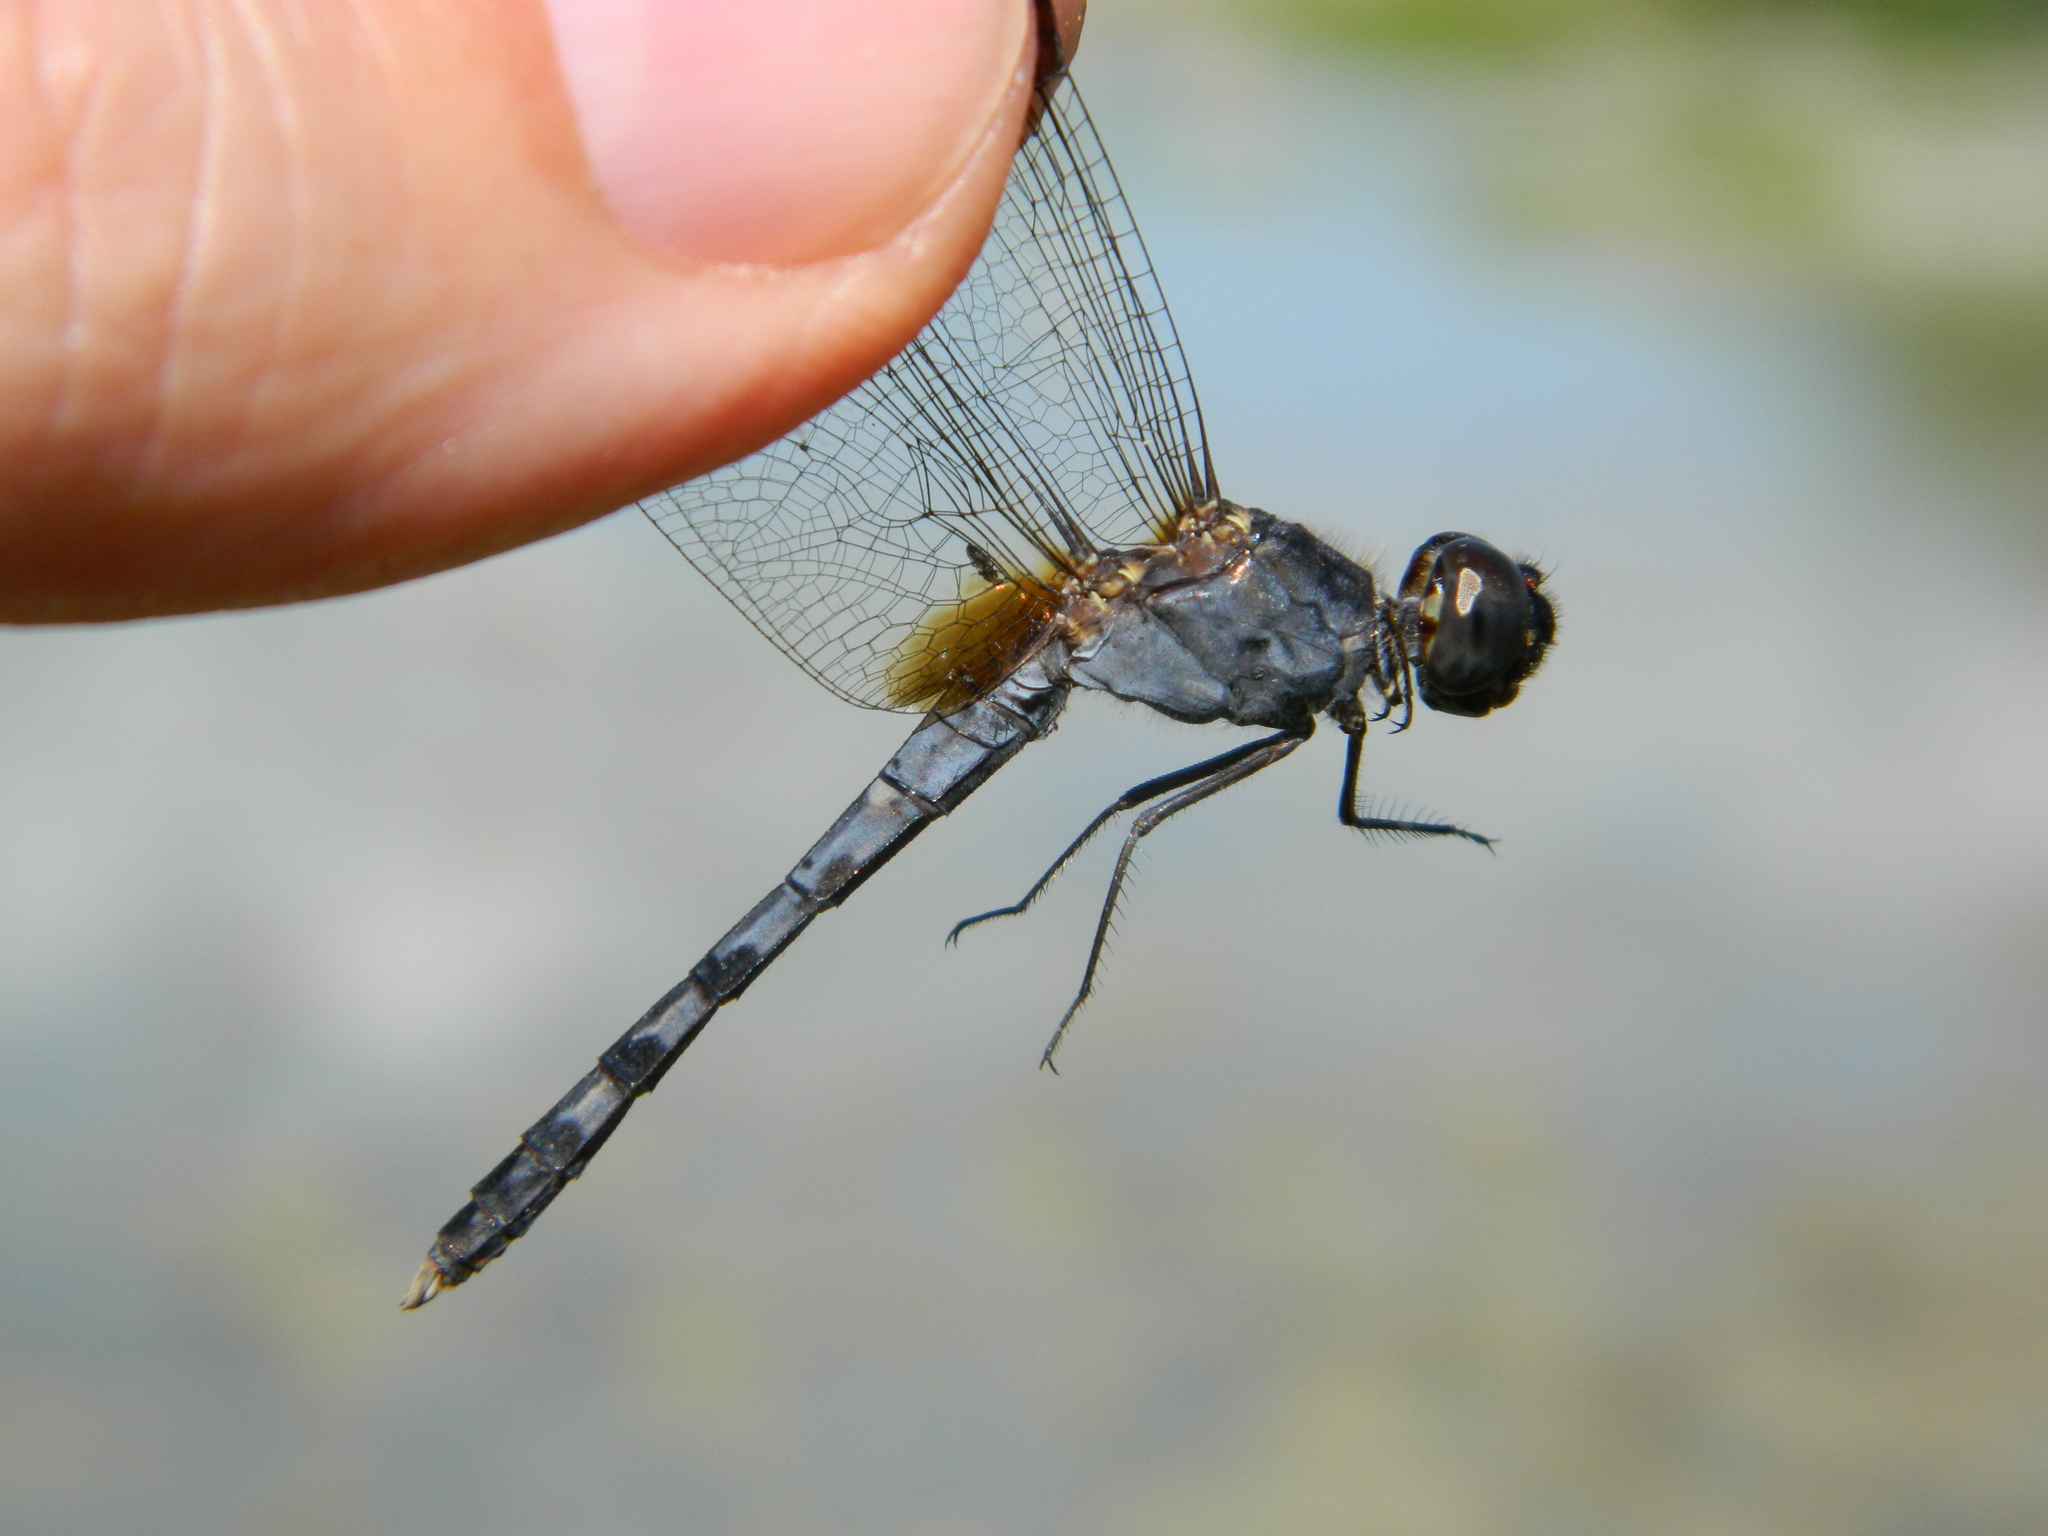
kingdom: Animalia
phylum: Arthropoda
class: Insecta
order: Odonata
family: Libellulidae
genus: Erythrodiplax
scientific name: Erythrodiplax umbrata
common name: Band-winged dragonlet
